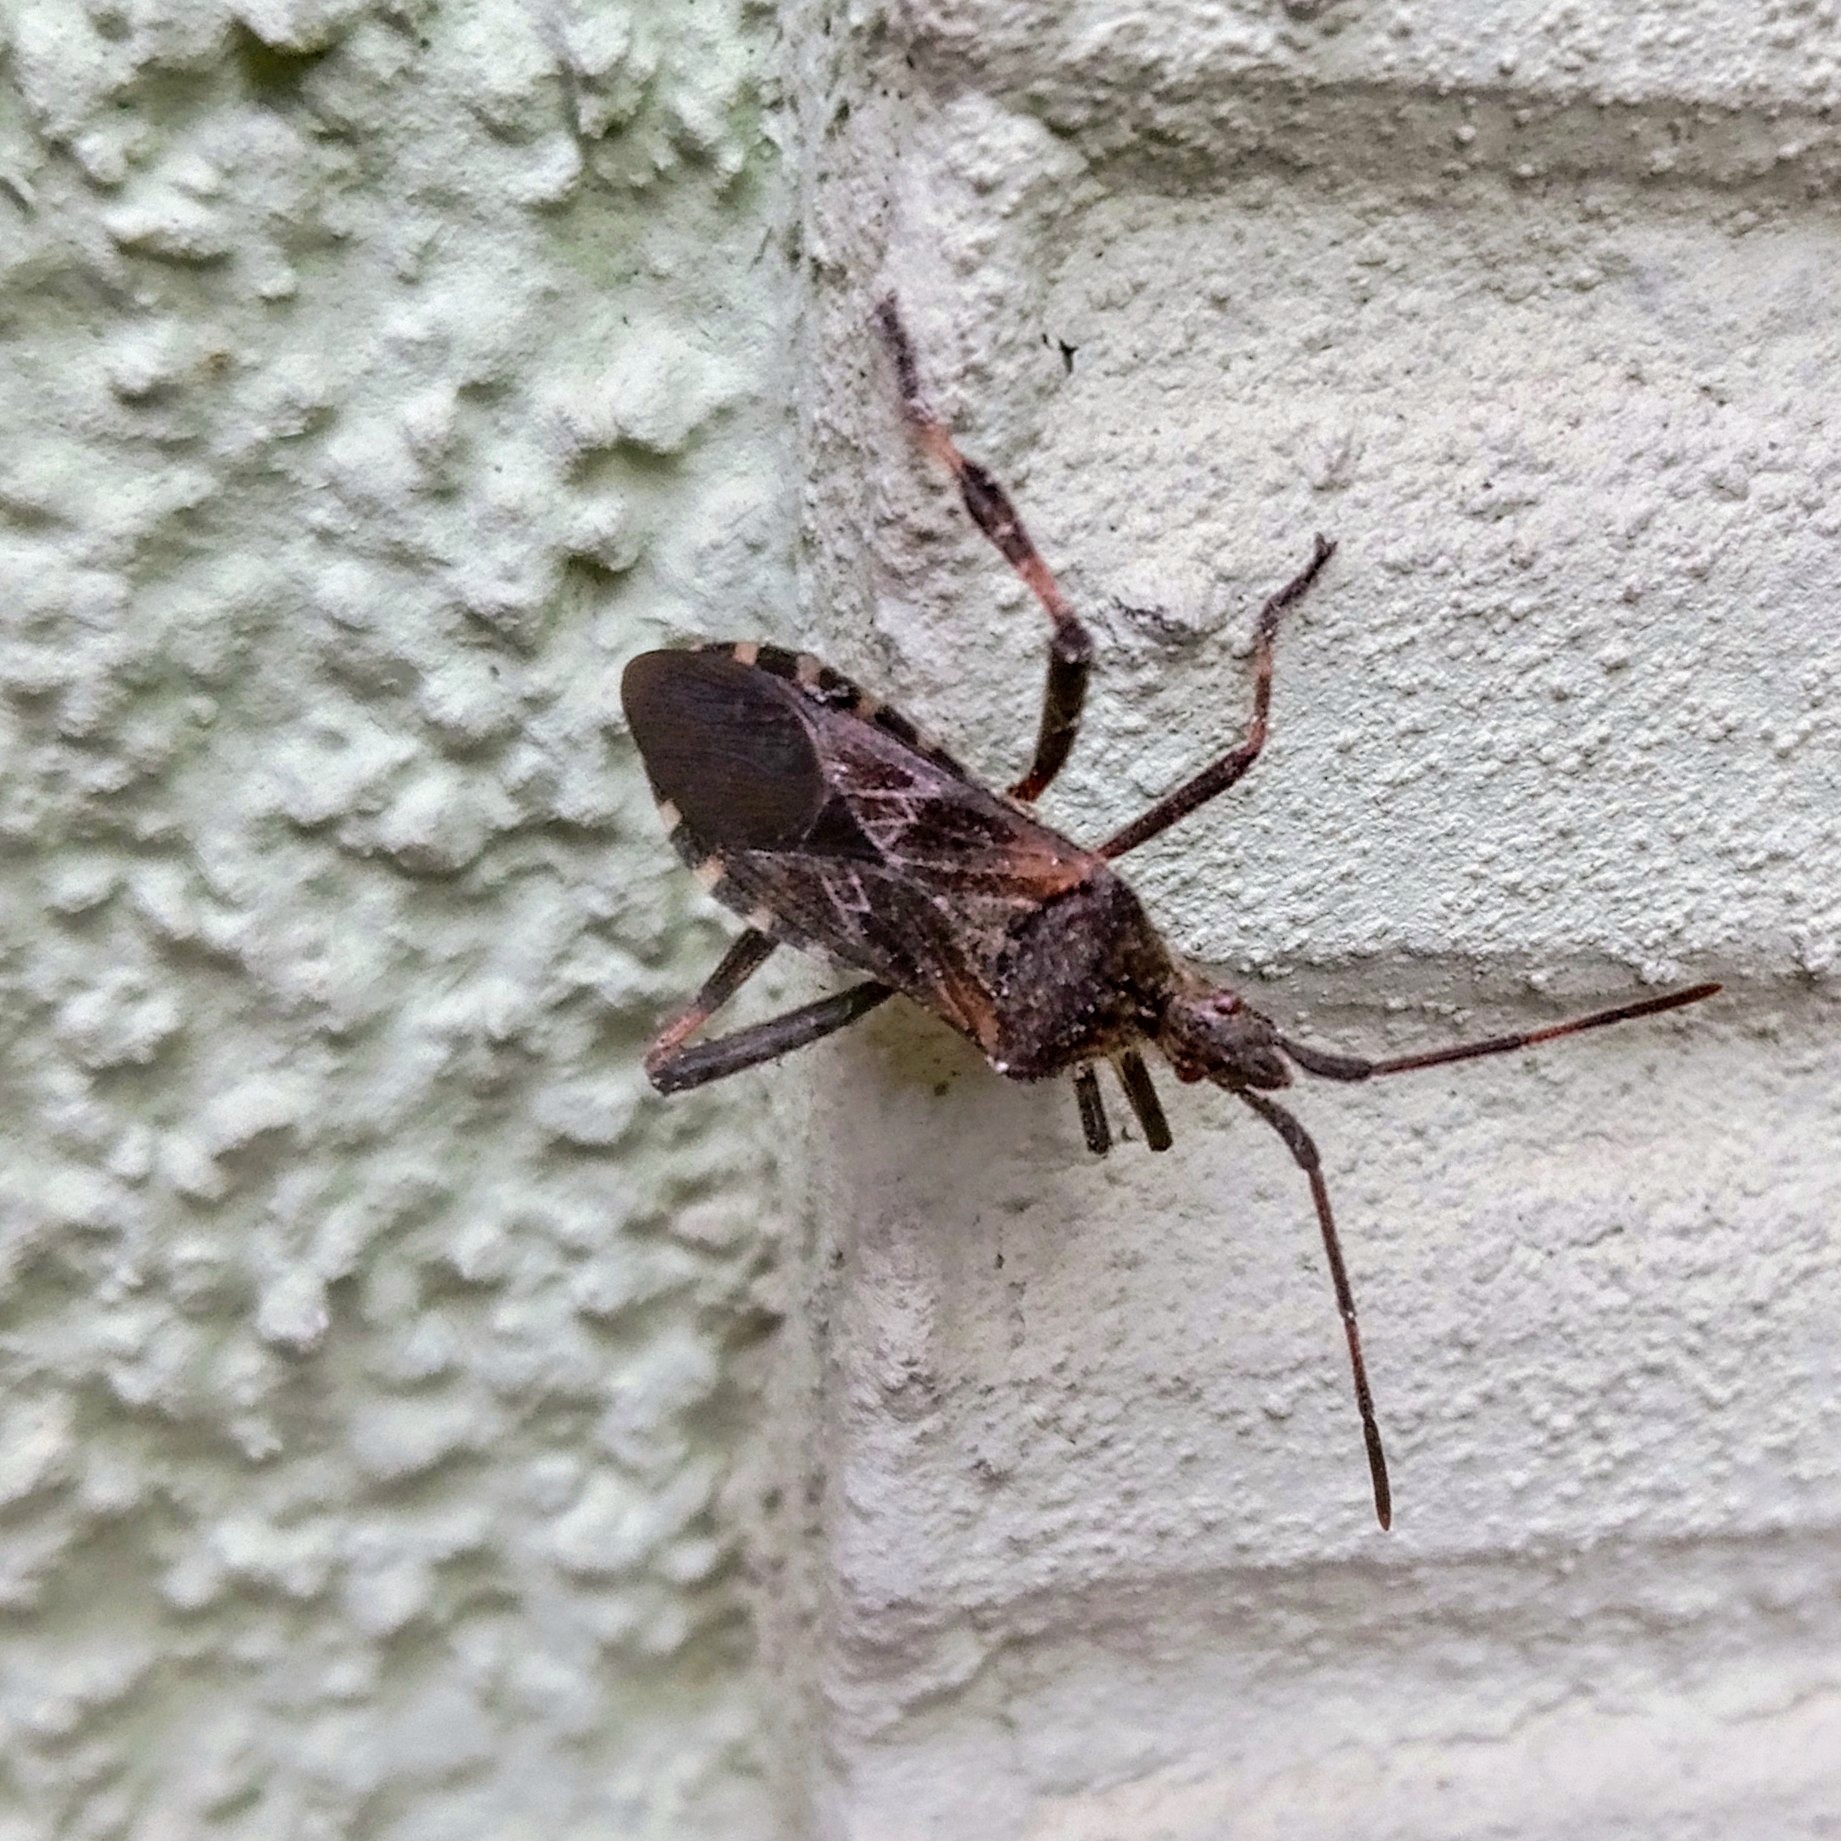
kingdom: Animalia
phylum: Arthropoda
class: Insecta
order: Hemiptera
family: Coreidae
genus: Leptoglossus
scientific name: Leptoglossus occidentalis
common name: Western conifer-seed bug
